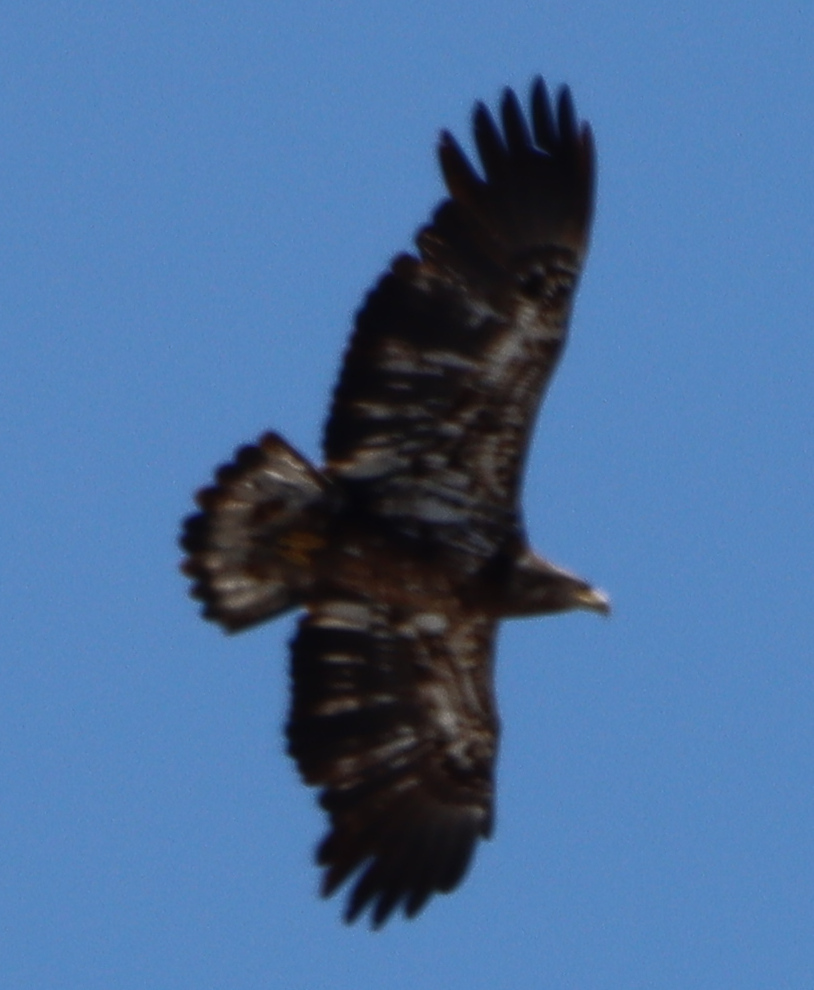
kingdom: Animalia
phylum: Chordata
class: Aves
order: Accipitriformes
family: Accipitridae
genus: Haliaeetus
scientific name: Haliaeetus leucocephalus
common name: Bald eagle
